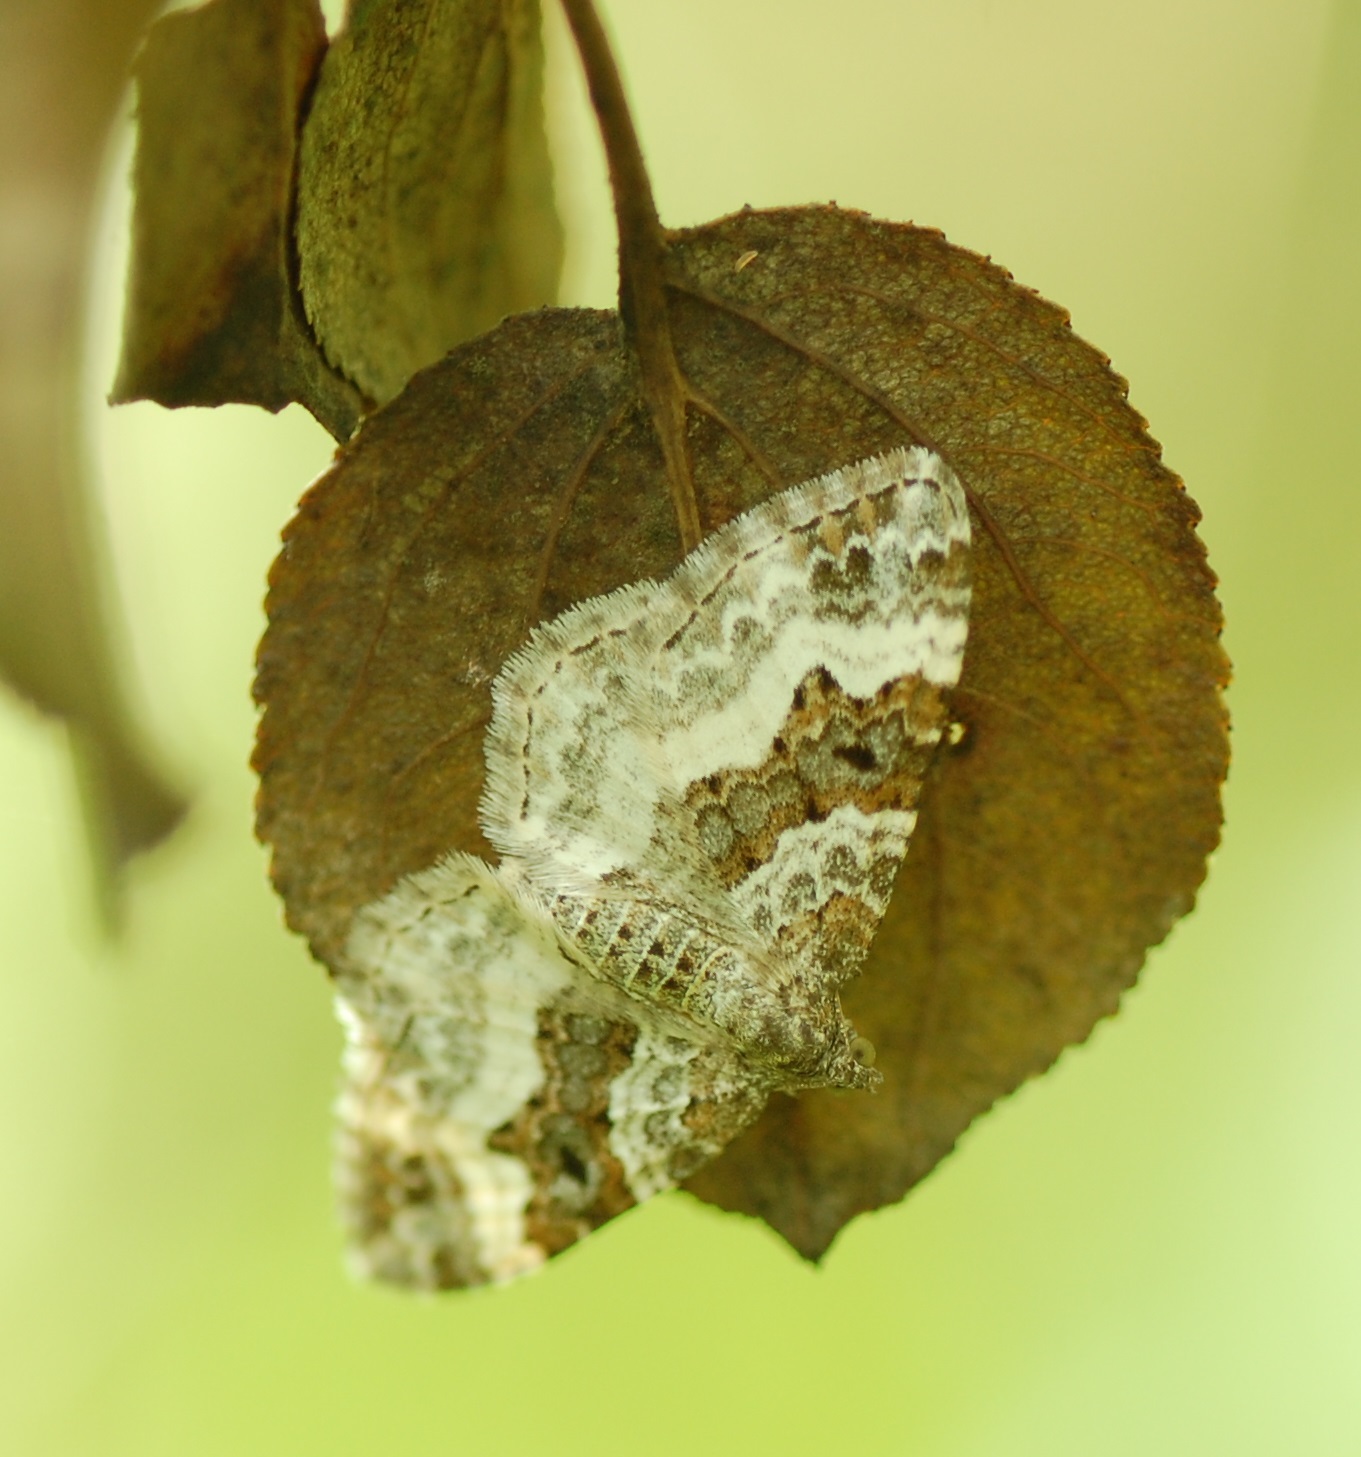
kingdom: Animalia
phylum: Arthropoda
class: Insecta
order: Lepidoptera
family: Geometridae
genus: Epirrhoe
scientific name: Epirrhoe alternata
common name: Common carpet
